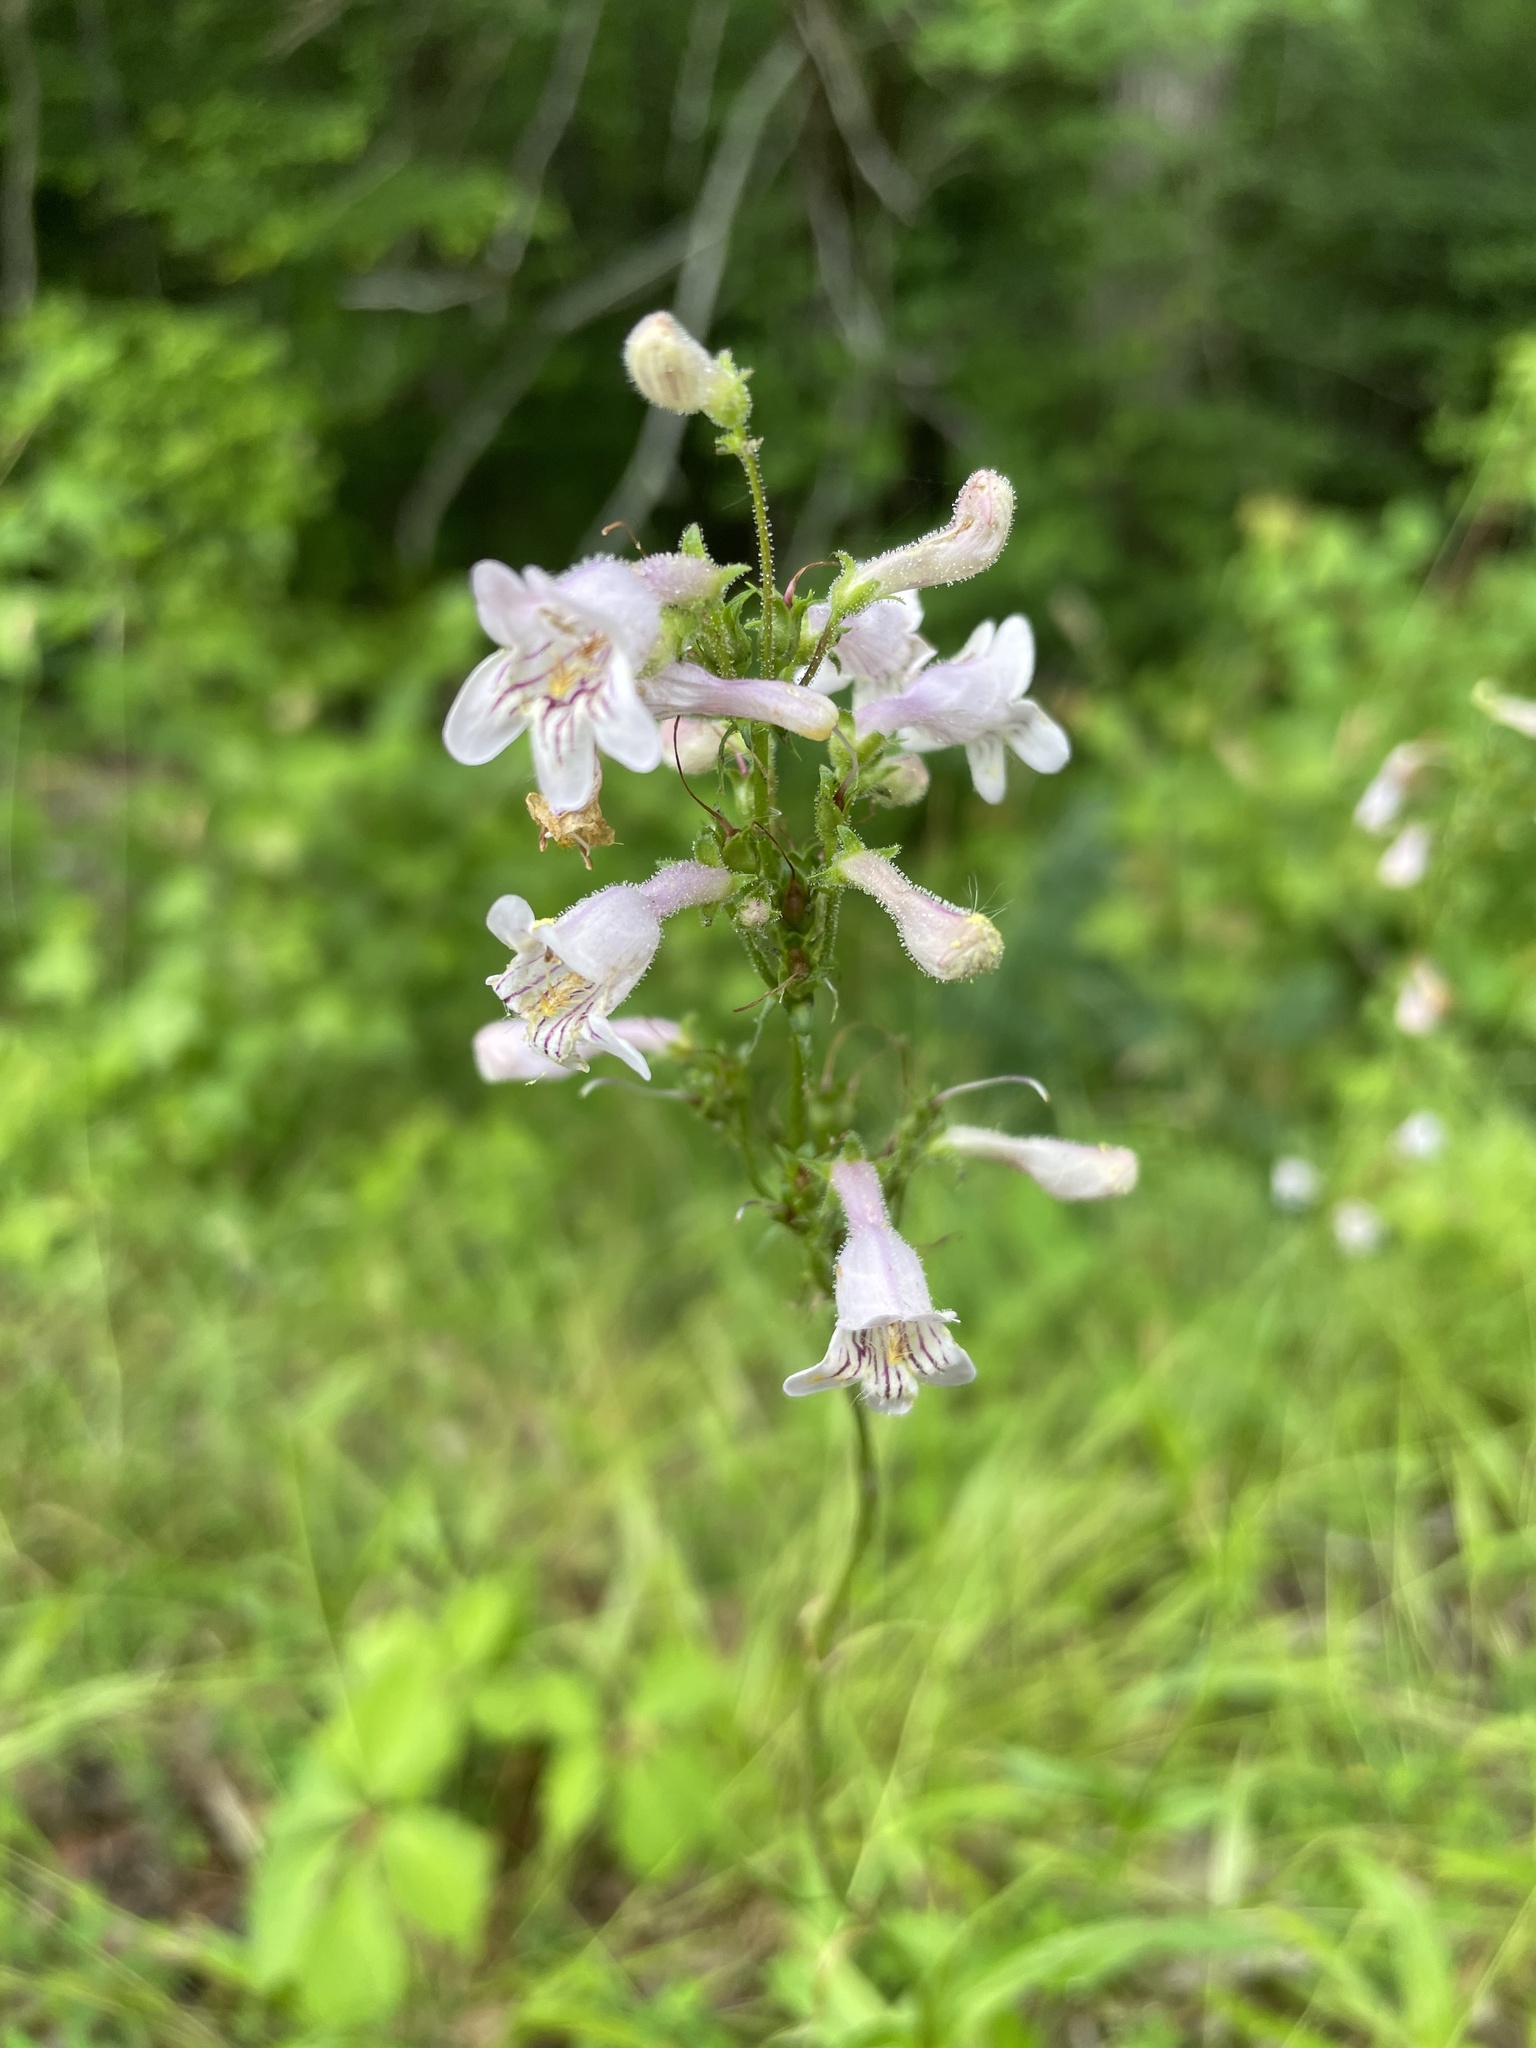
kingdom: Plantae
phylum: Tracheophyta
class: Magnoliopsida
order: Lamiales
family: Plantaginaceae
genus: Penstemon
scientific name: Penstemon laevigatus
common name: Eastern beardtongue
